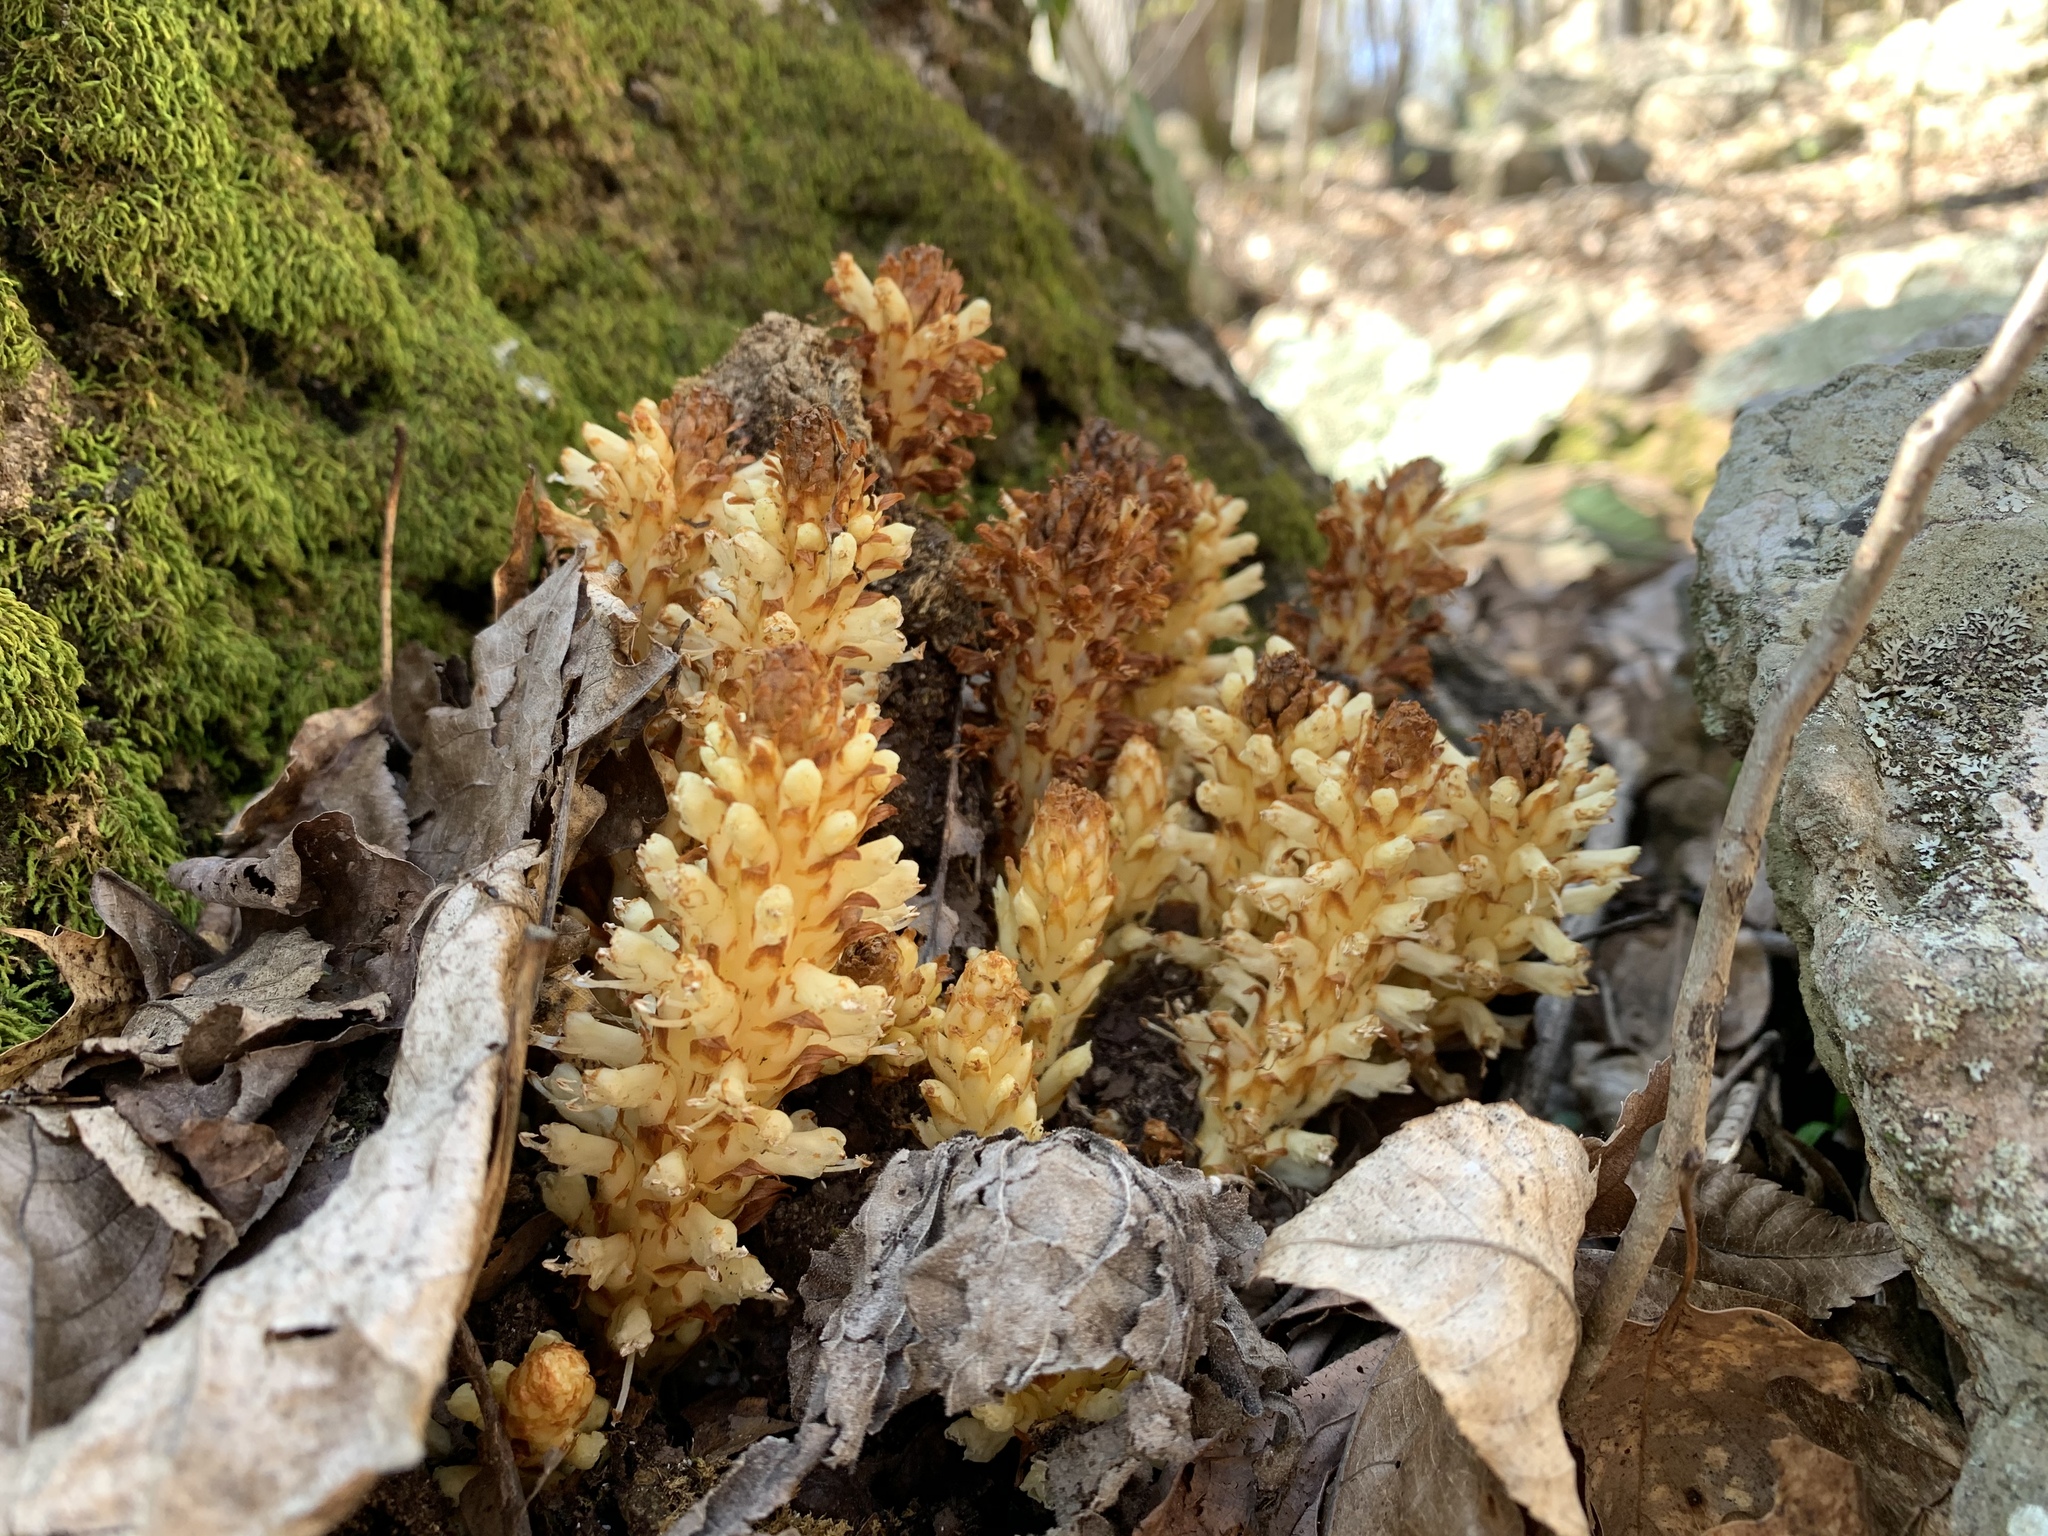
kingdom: Plantae
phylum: Tracheophyta
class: Magnoliopsida
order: Lamiales
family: Orobanchaceae
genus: Conopholis
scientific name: Conopholis americana
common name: American cancer-root
